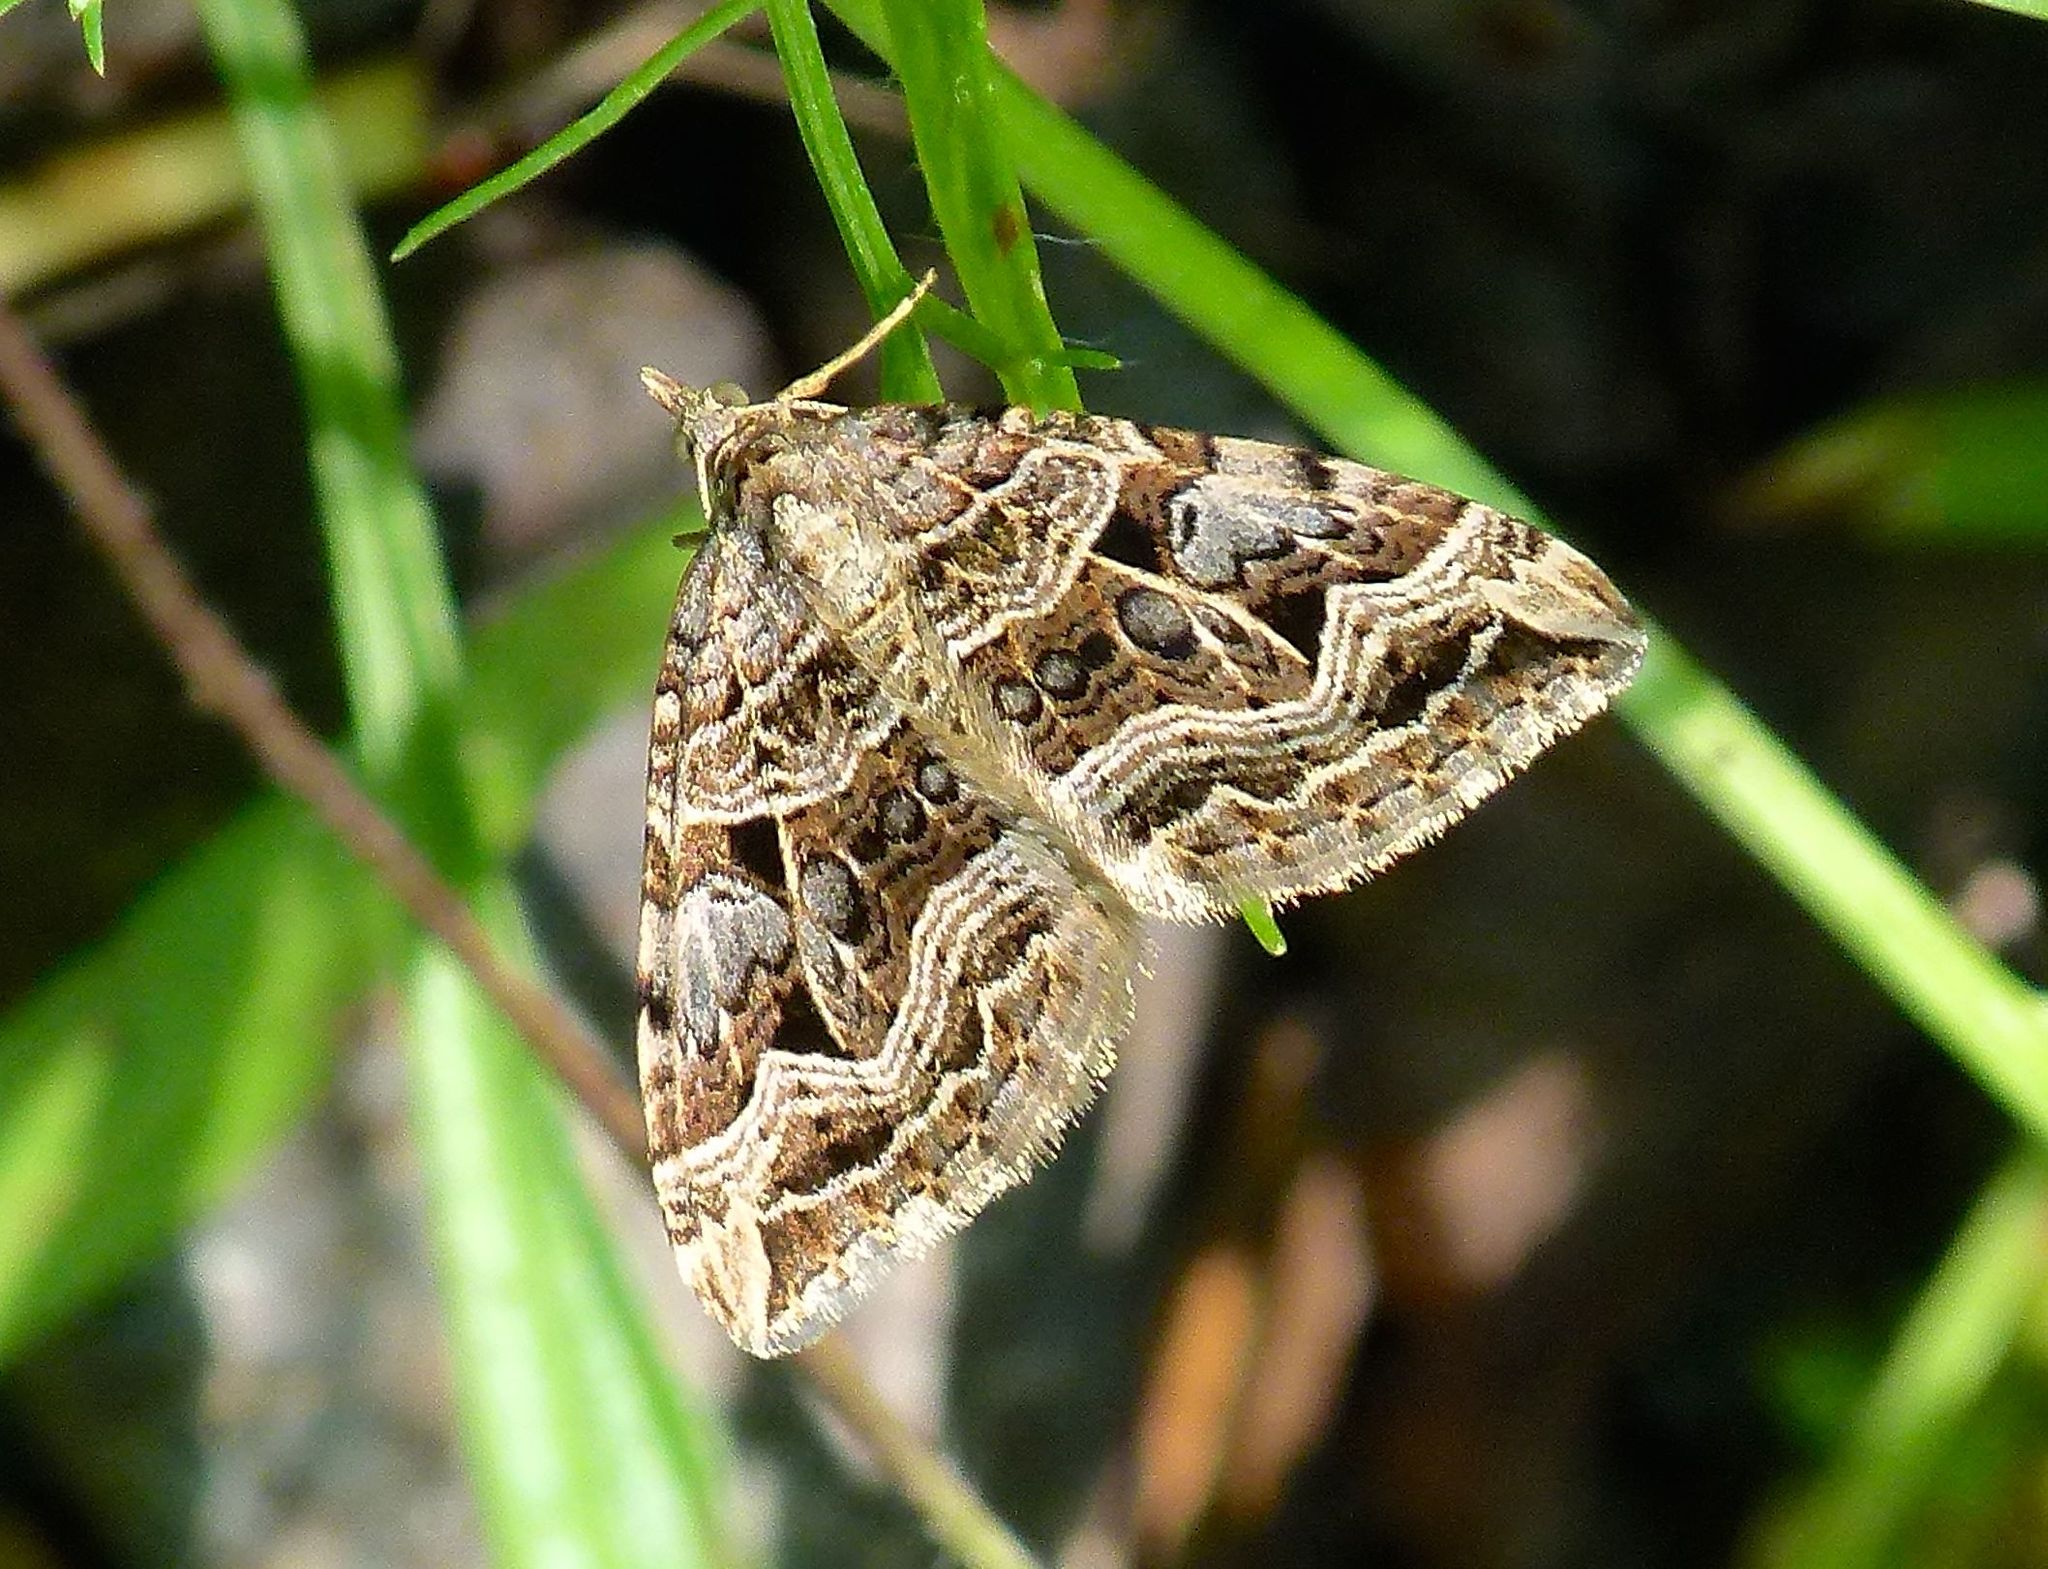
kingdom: Animalia
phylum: Arthropoda
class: Insecta
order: Lepidoptera
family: Geometridae
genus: Xanthorhoe
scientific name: Xanthorhoe semifissata
